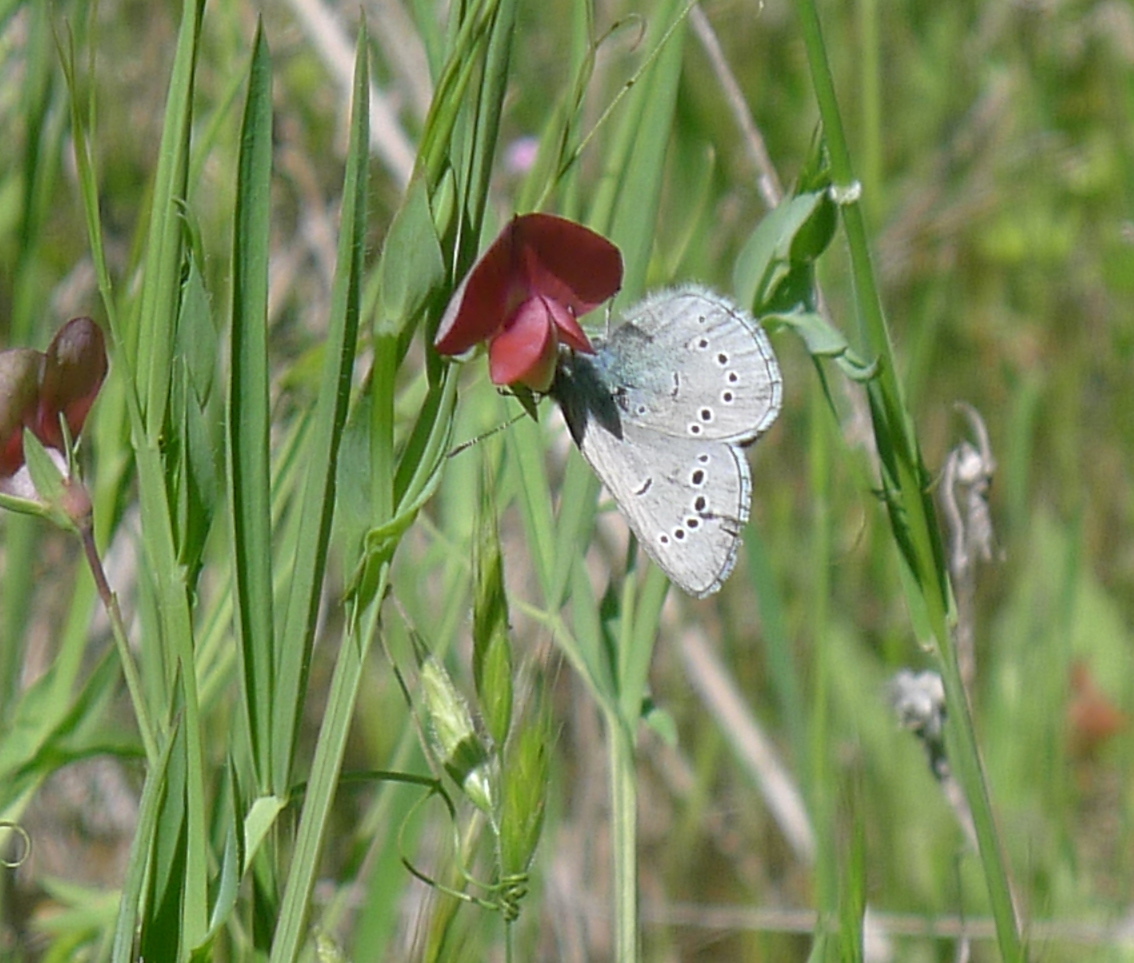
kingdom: Animalia
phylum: Arthropoda
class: Insecta
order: Lepidoptera
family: Lycaenidae
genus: Glaucopsyche
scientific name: Glaucopsyche lygdamus
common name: Silvery blue
